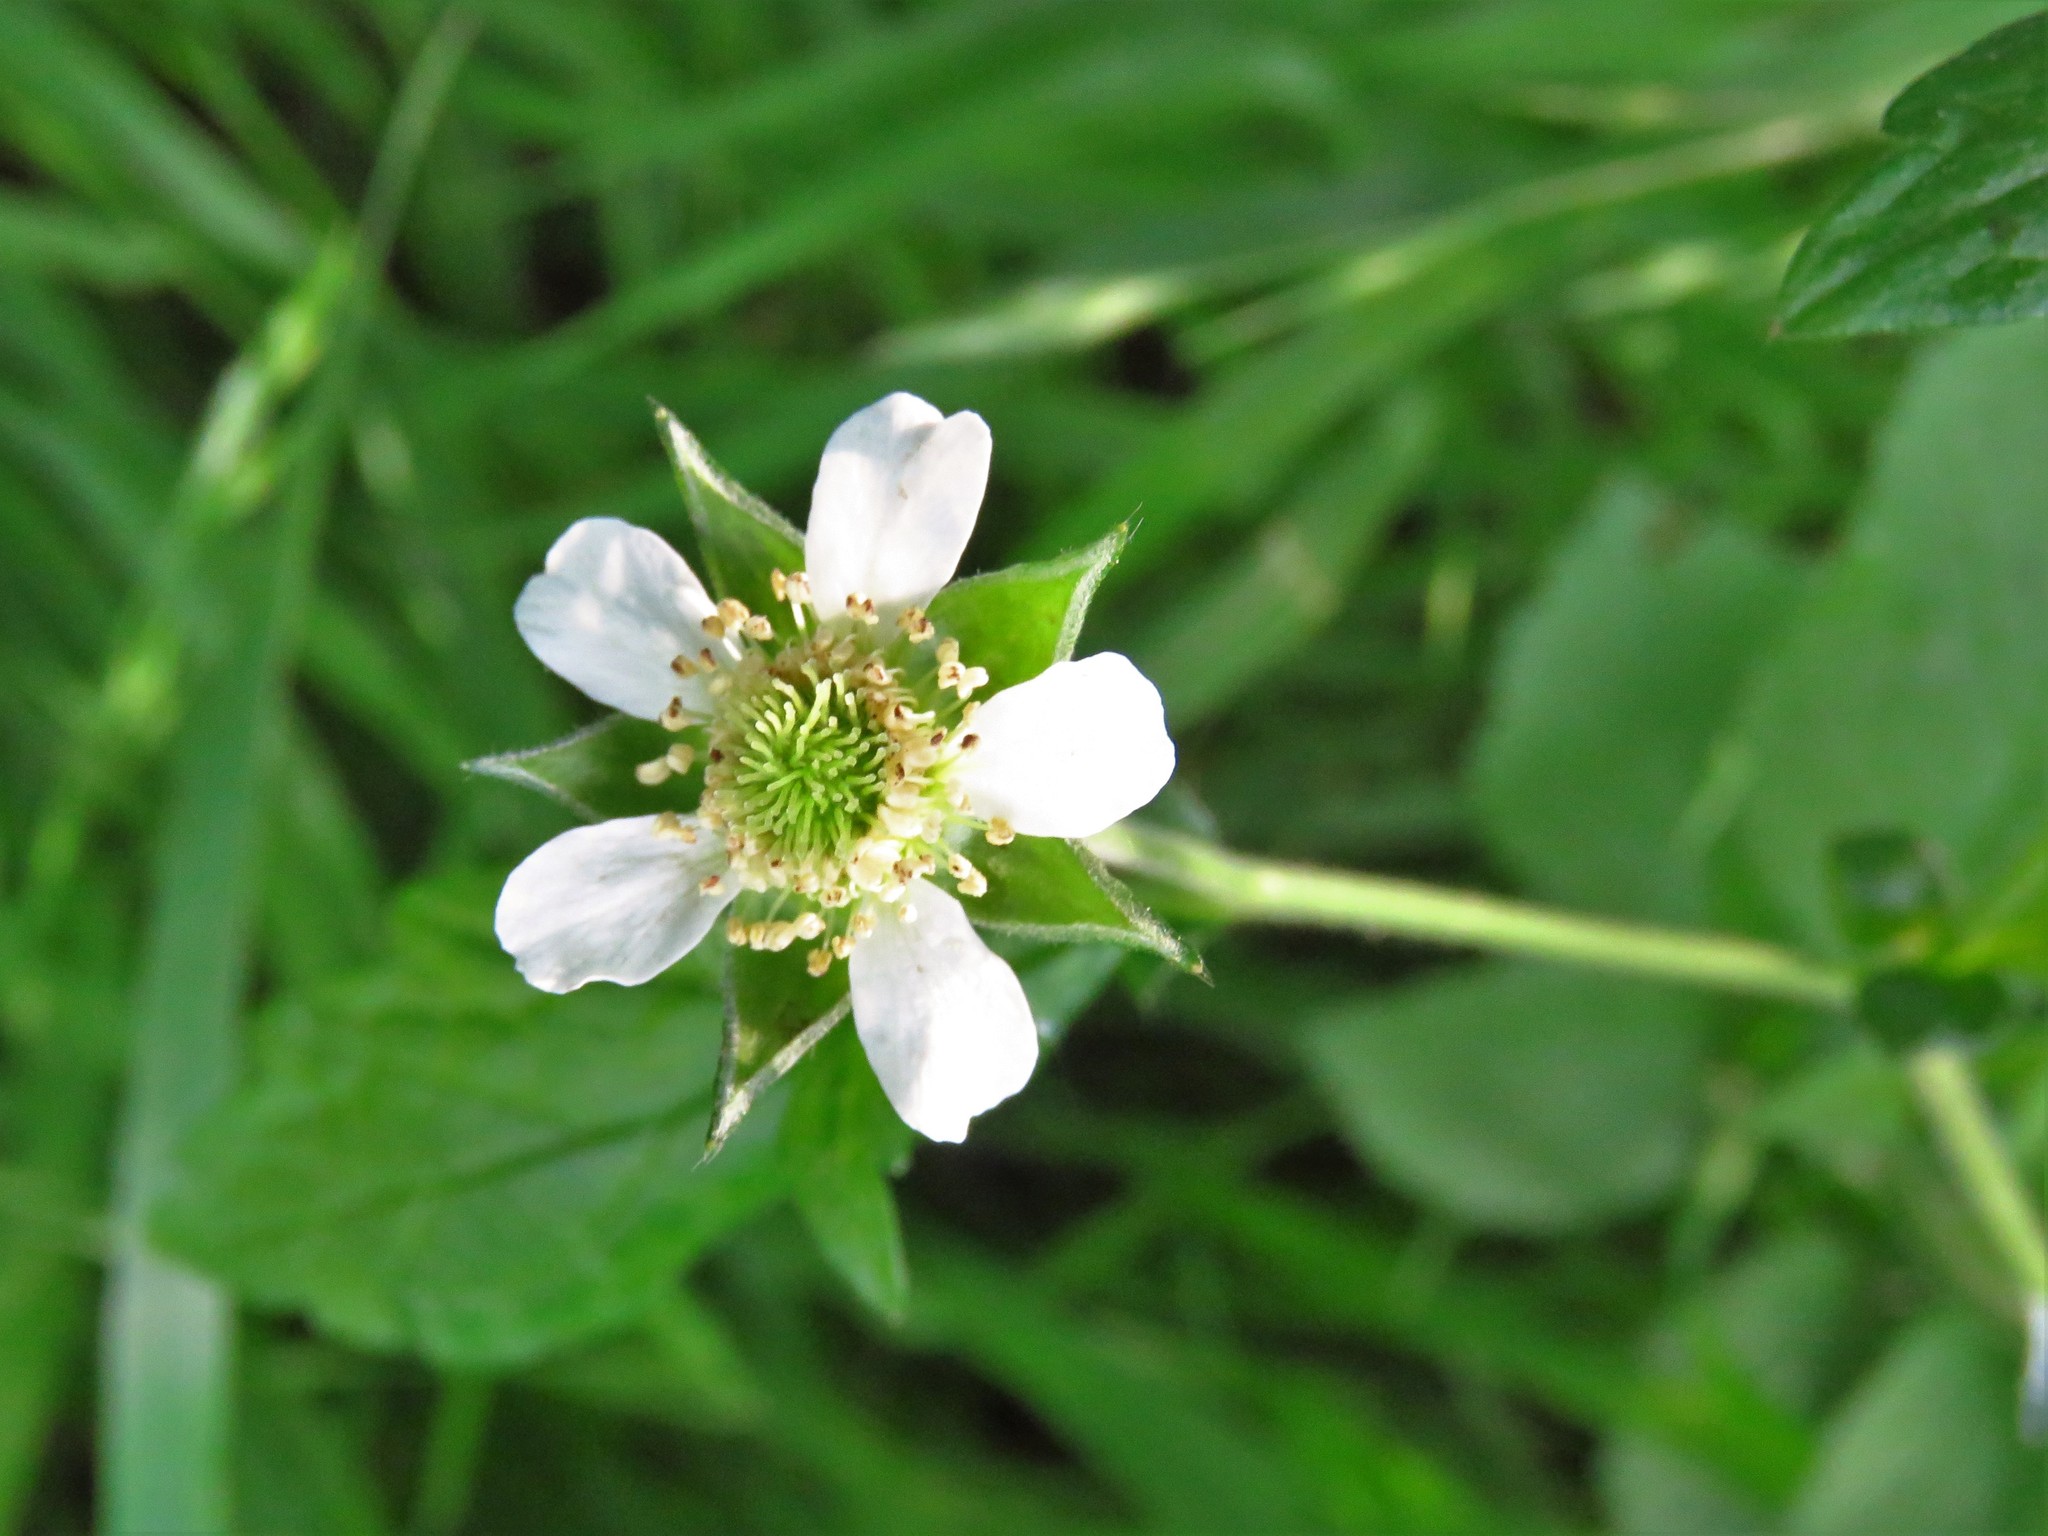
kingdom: Plantae
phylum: Tracheophyta
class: Magnoliopsida
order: Rosales
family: Rosaceae
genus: Geum
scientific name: Geum canadense
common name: White avens
